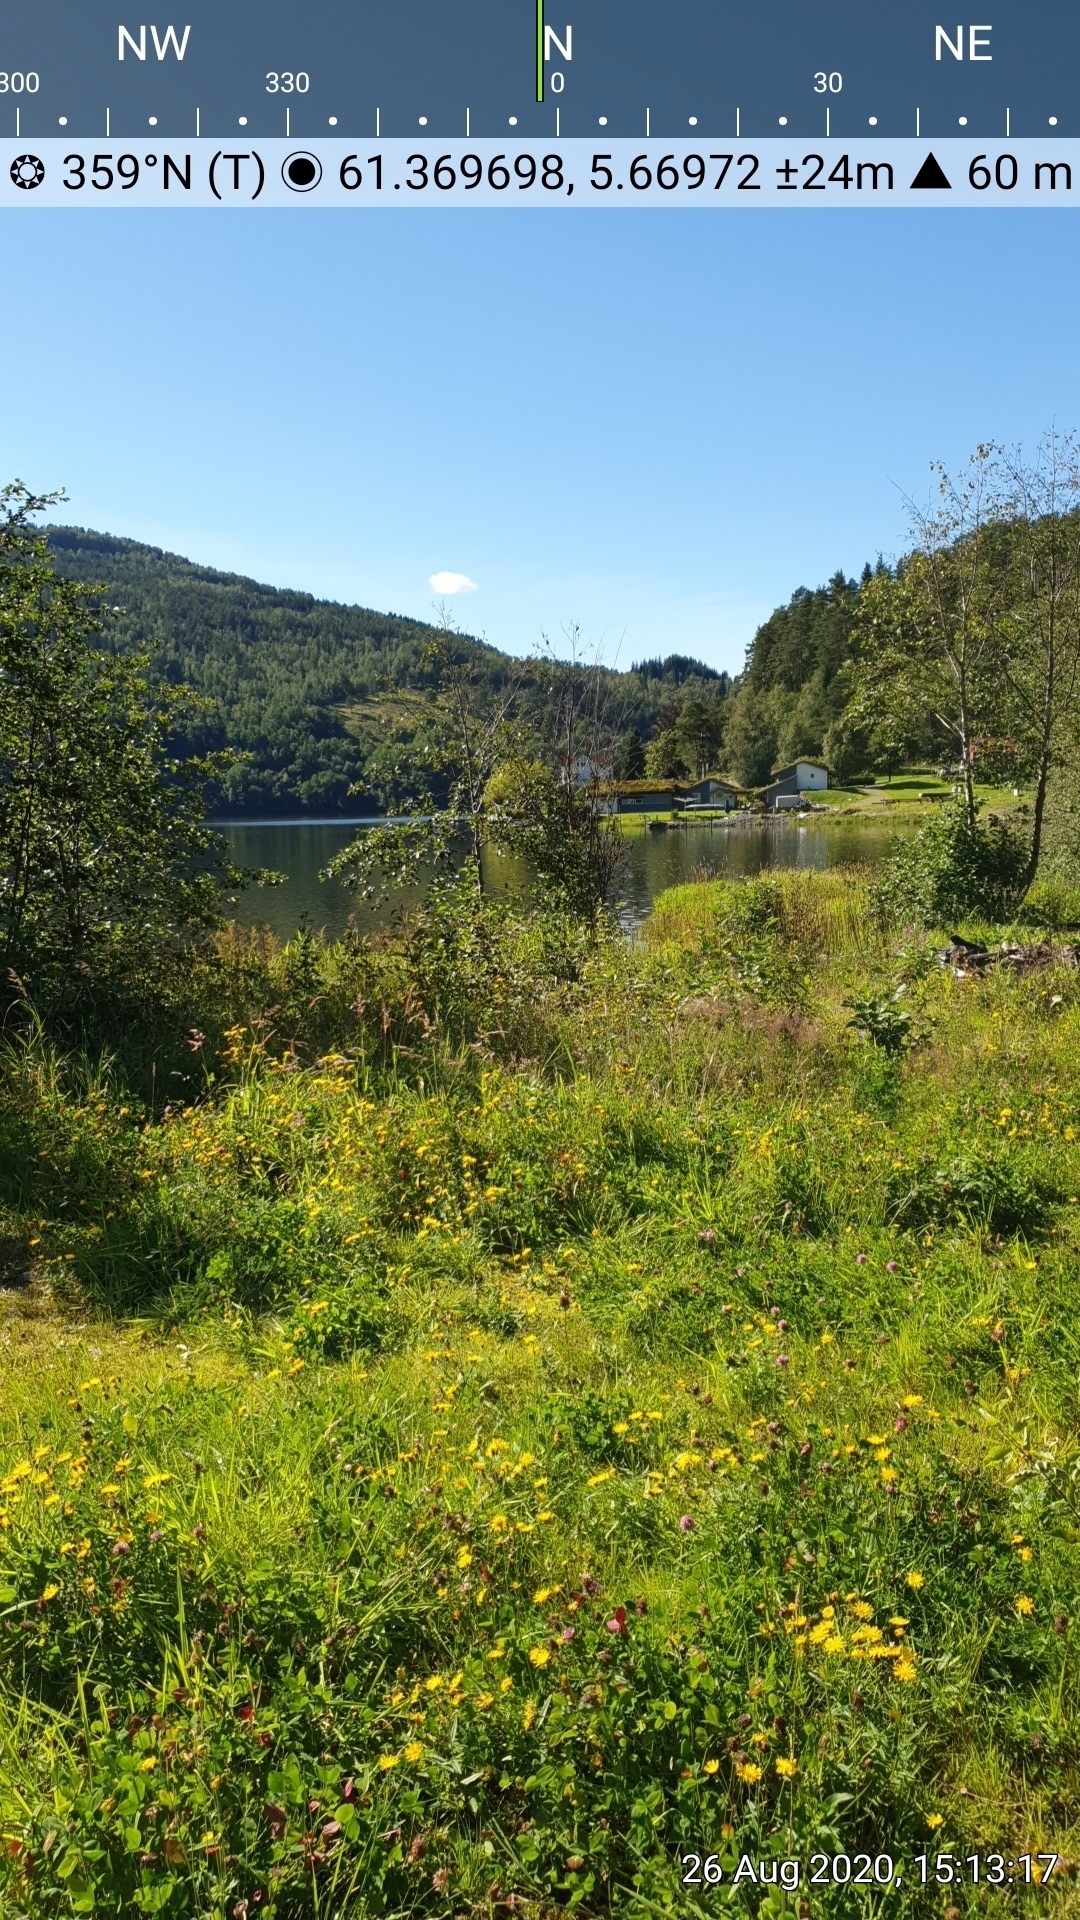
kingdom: Animalia
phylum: Arthropoda
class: Insecta
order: Lepidoptera
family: Pieridae
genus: Gonepteryx
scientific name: Gonepteryx rhamni
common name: Brimstone
